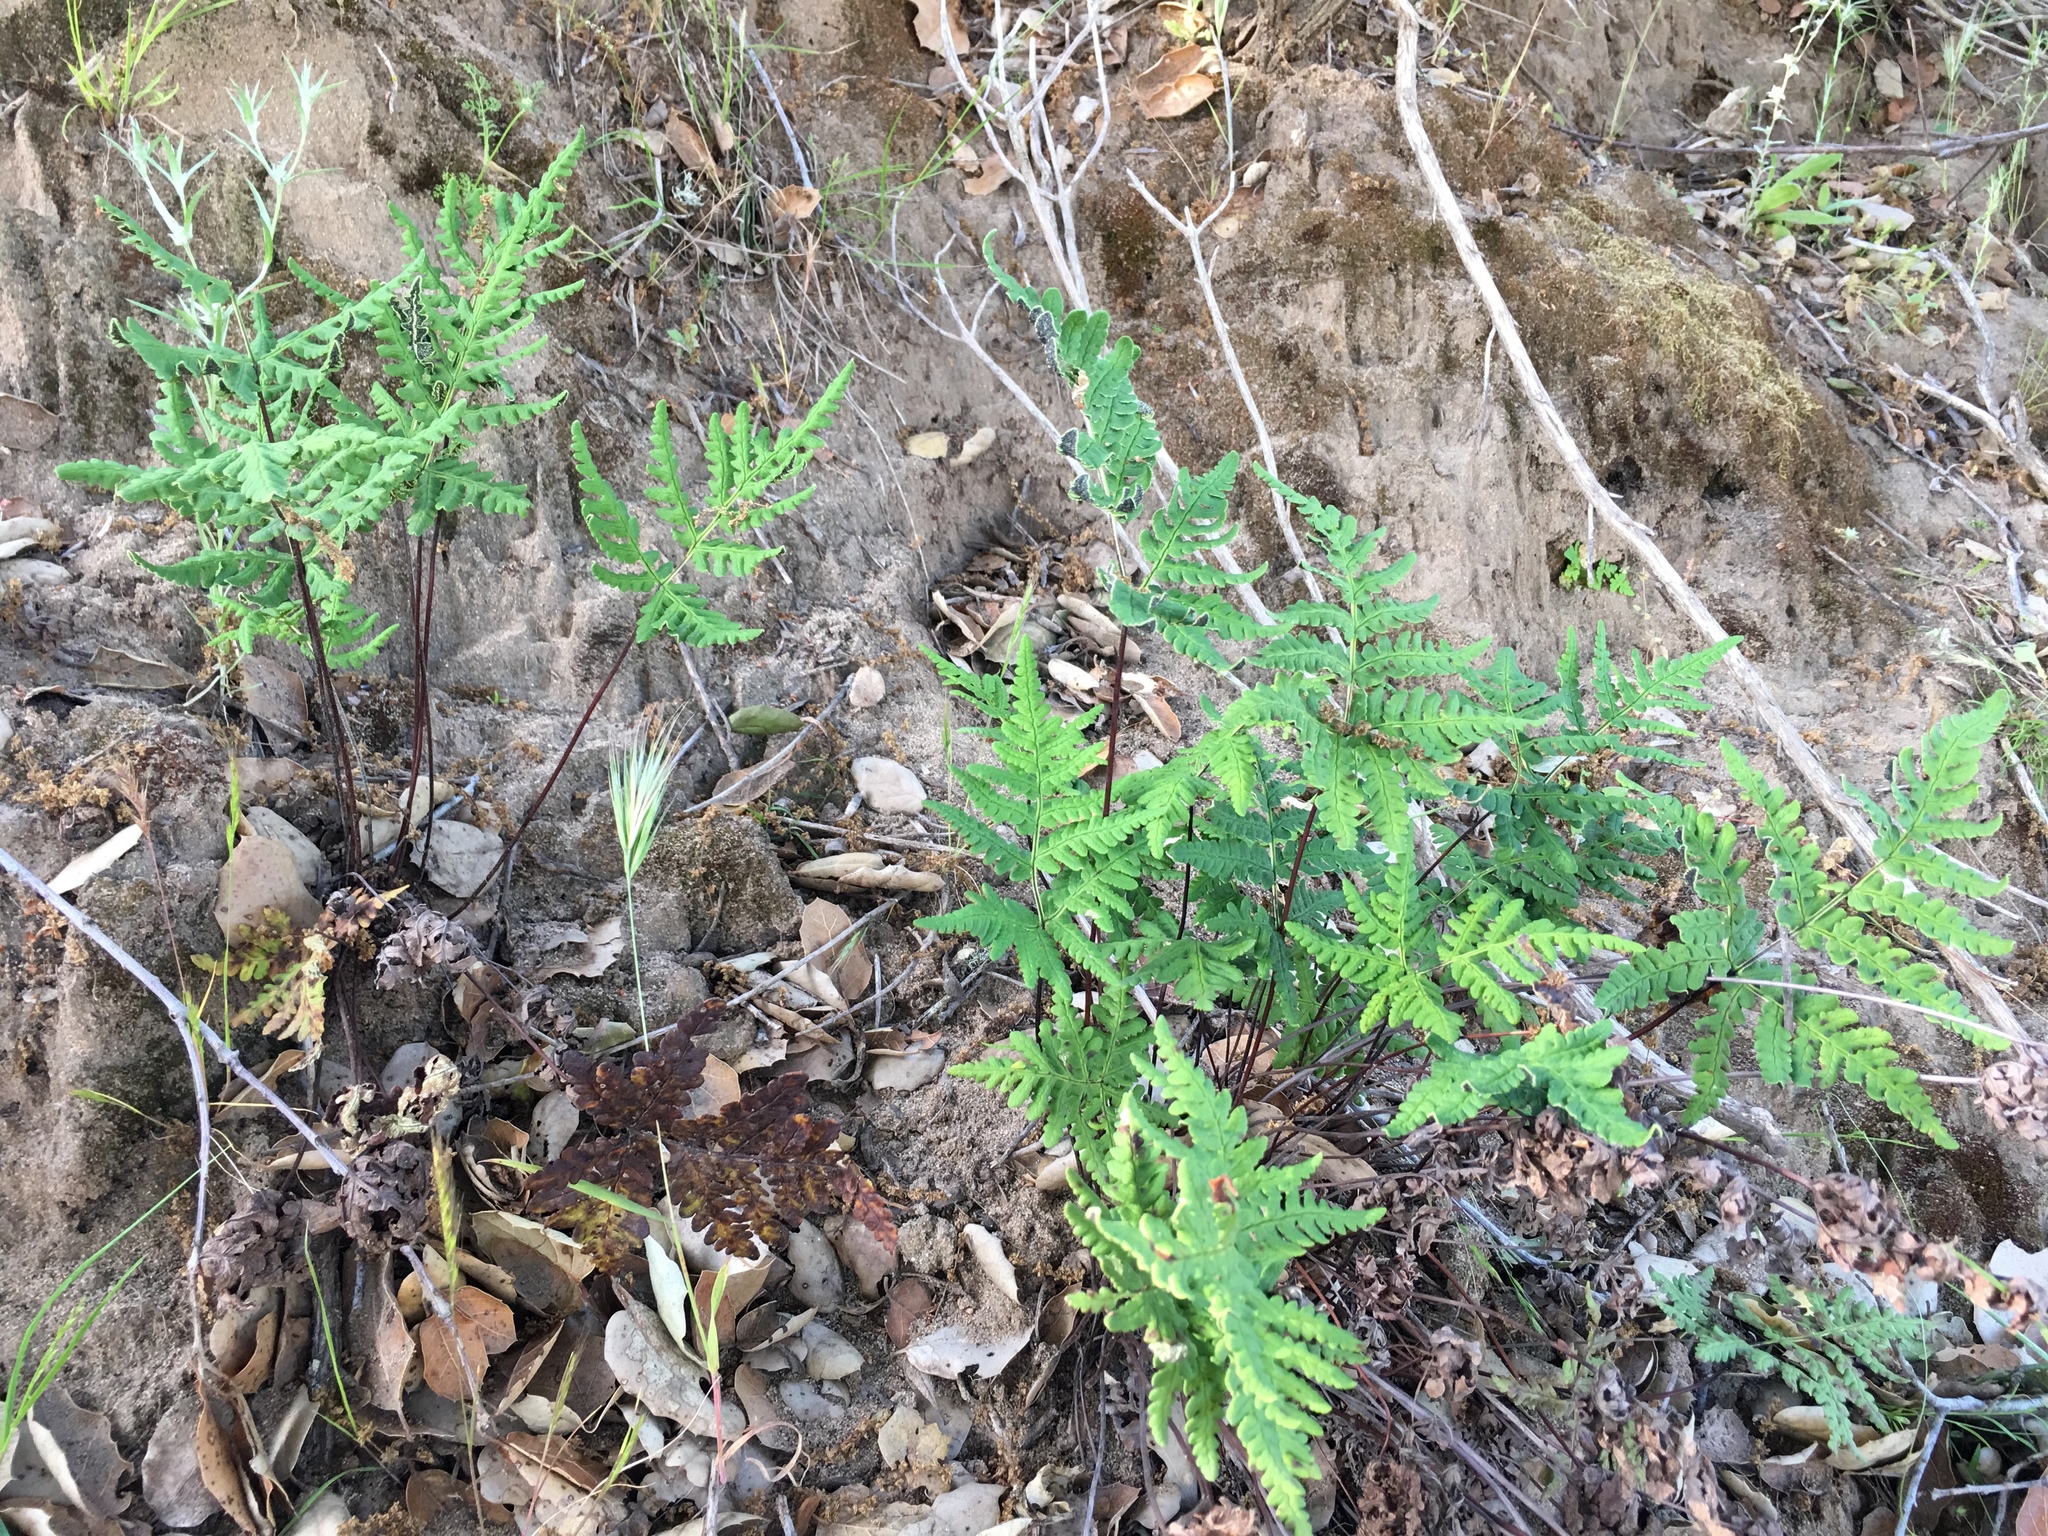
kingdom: Plantae
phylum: Tracheophyta
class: Polypodiopsida
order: Polypodiales
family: Pteridaceae
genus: Pentagramma
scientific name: Pentagramma triangularis
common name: Gold fern
